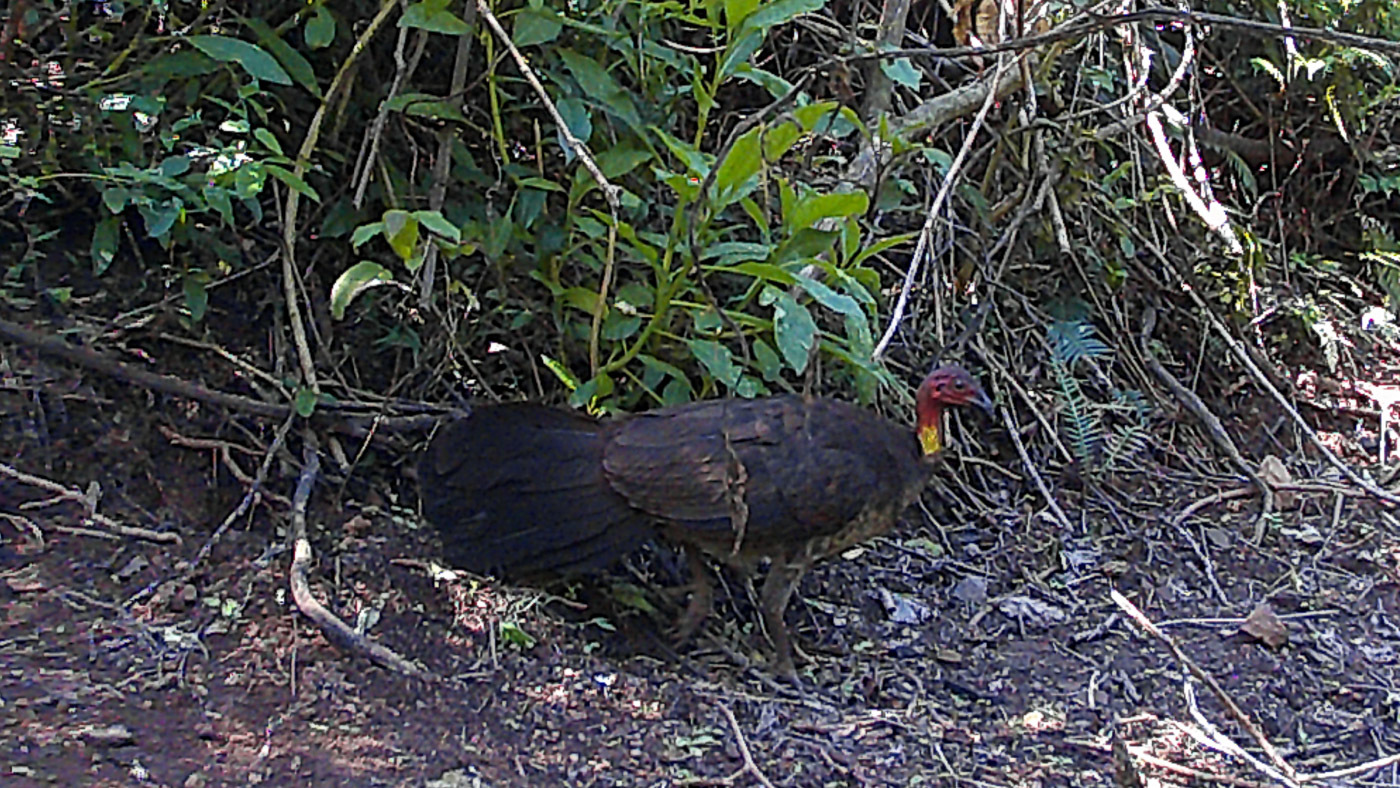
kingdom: Animalia
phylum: Chordata
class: Aves
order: Galliformes
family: Megapodiidae
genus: Alectura
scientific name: Alectura lathami
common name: Australian brushturkey
